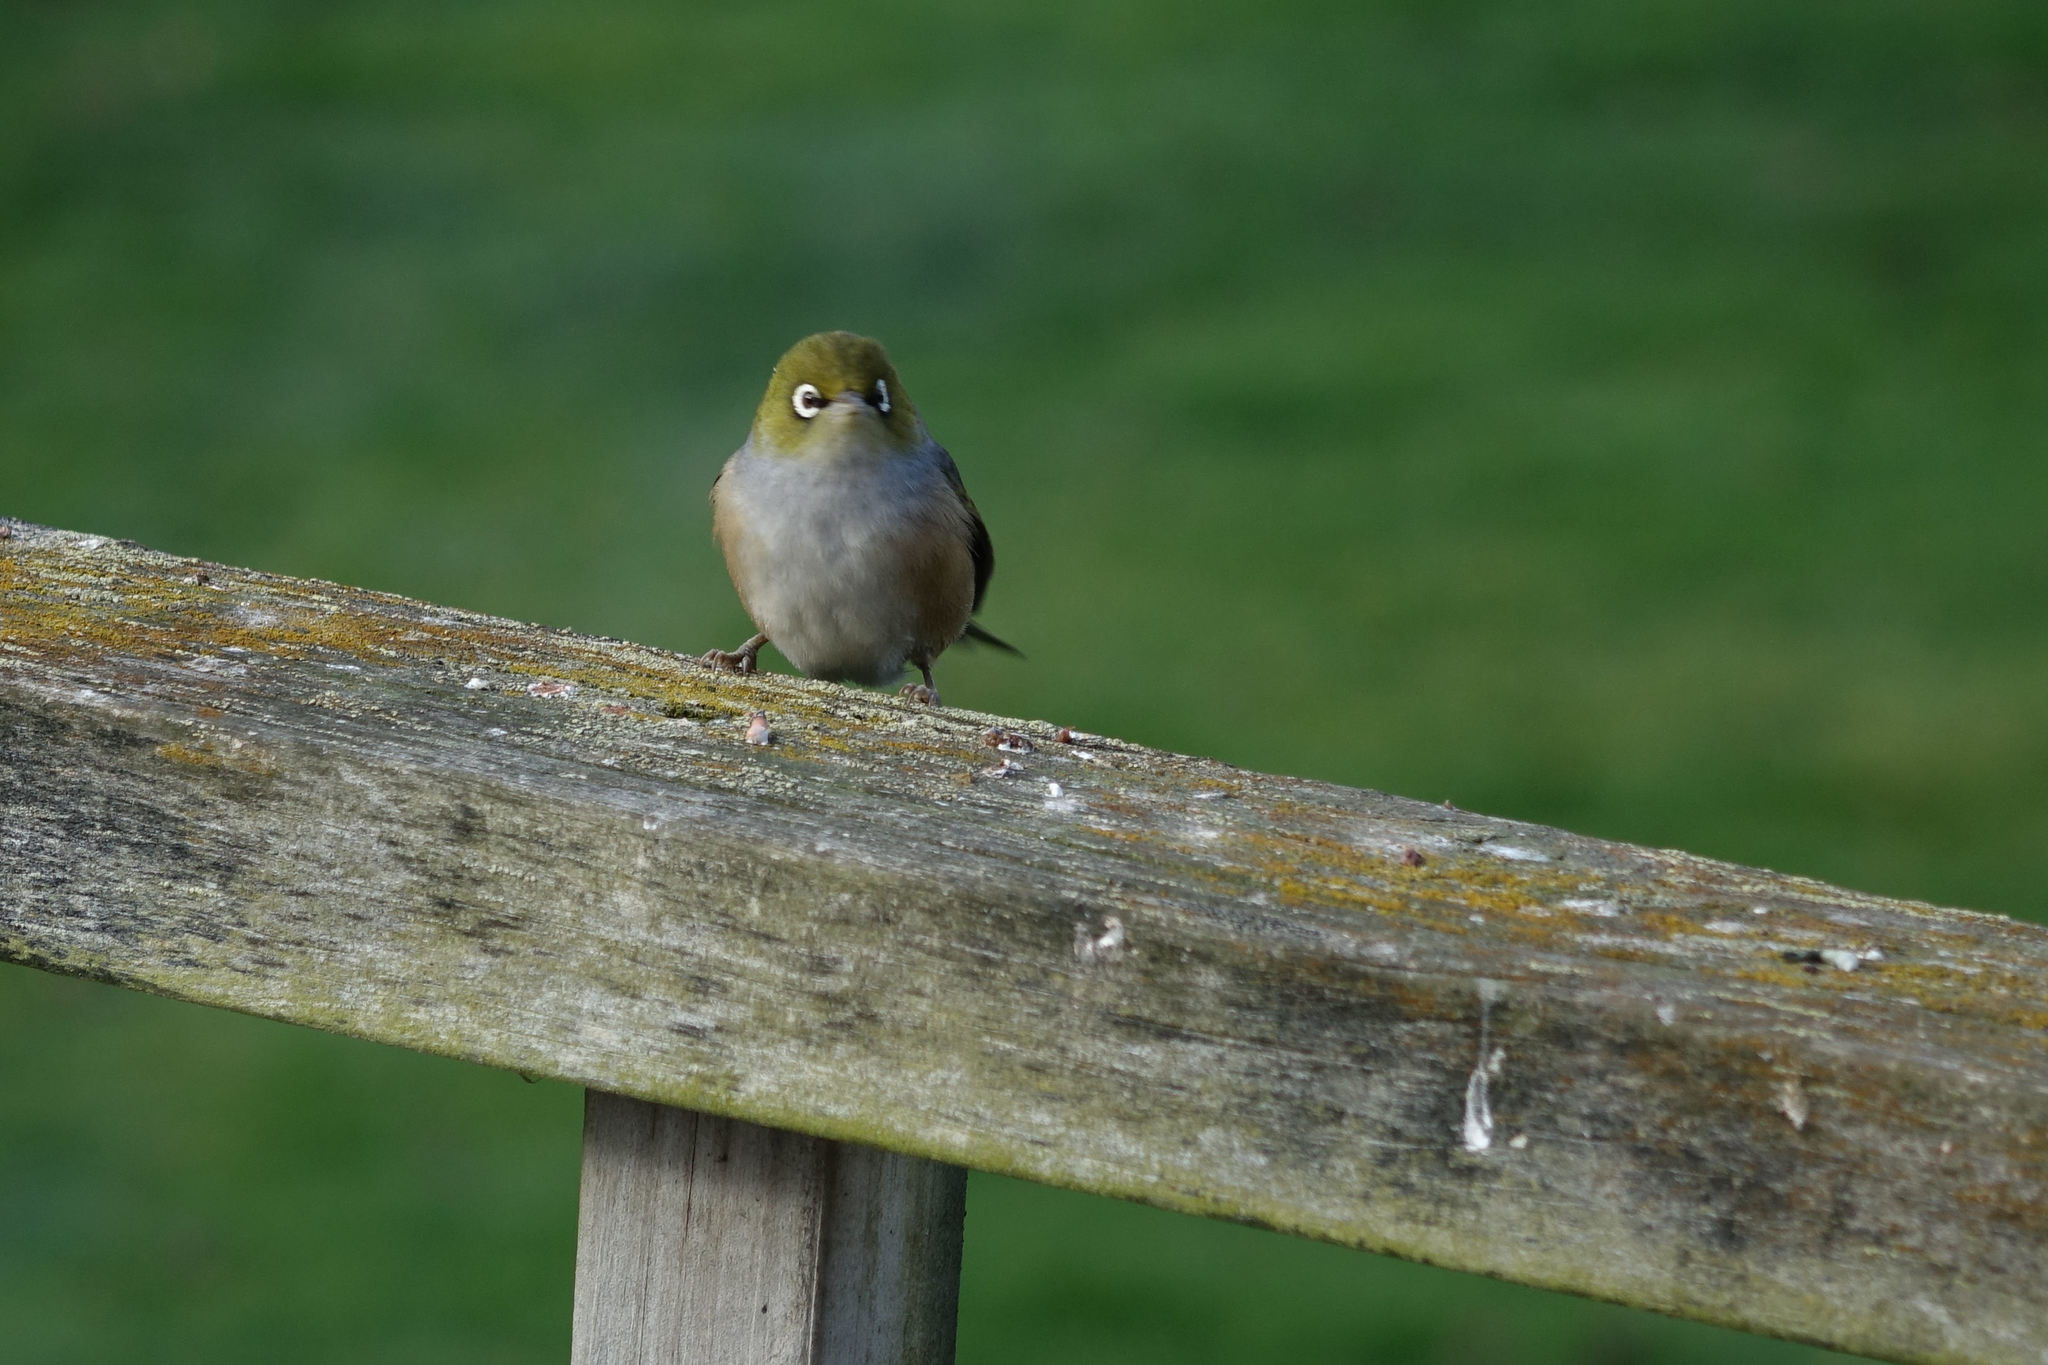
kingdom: Animalia
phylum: Chordata
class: Aves
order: Passeriformes
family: Zosteropidae
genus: Zosterops
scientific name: Zosterops lateralis
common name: Silvereye
